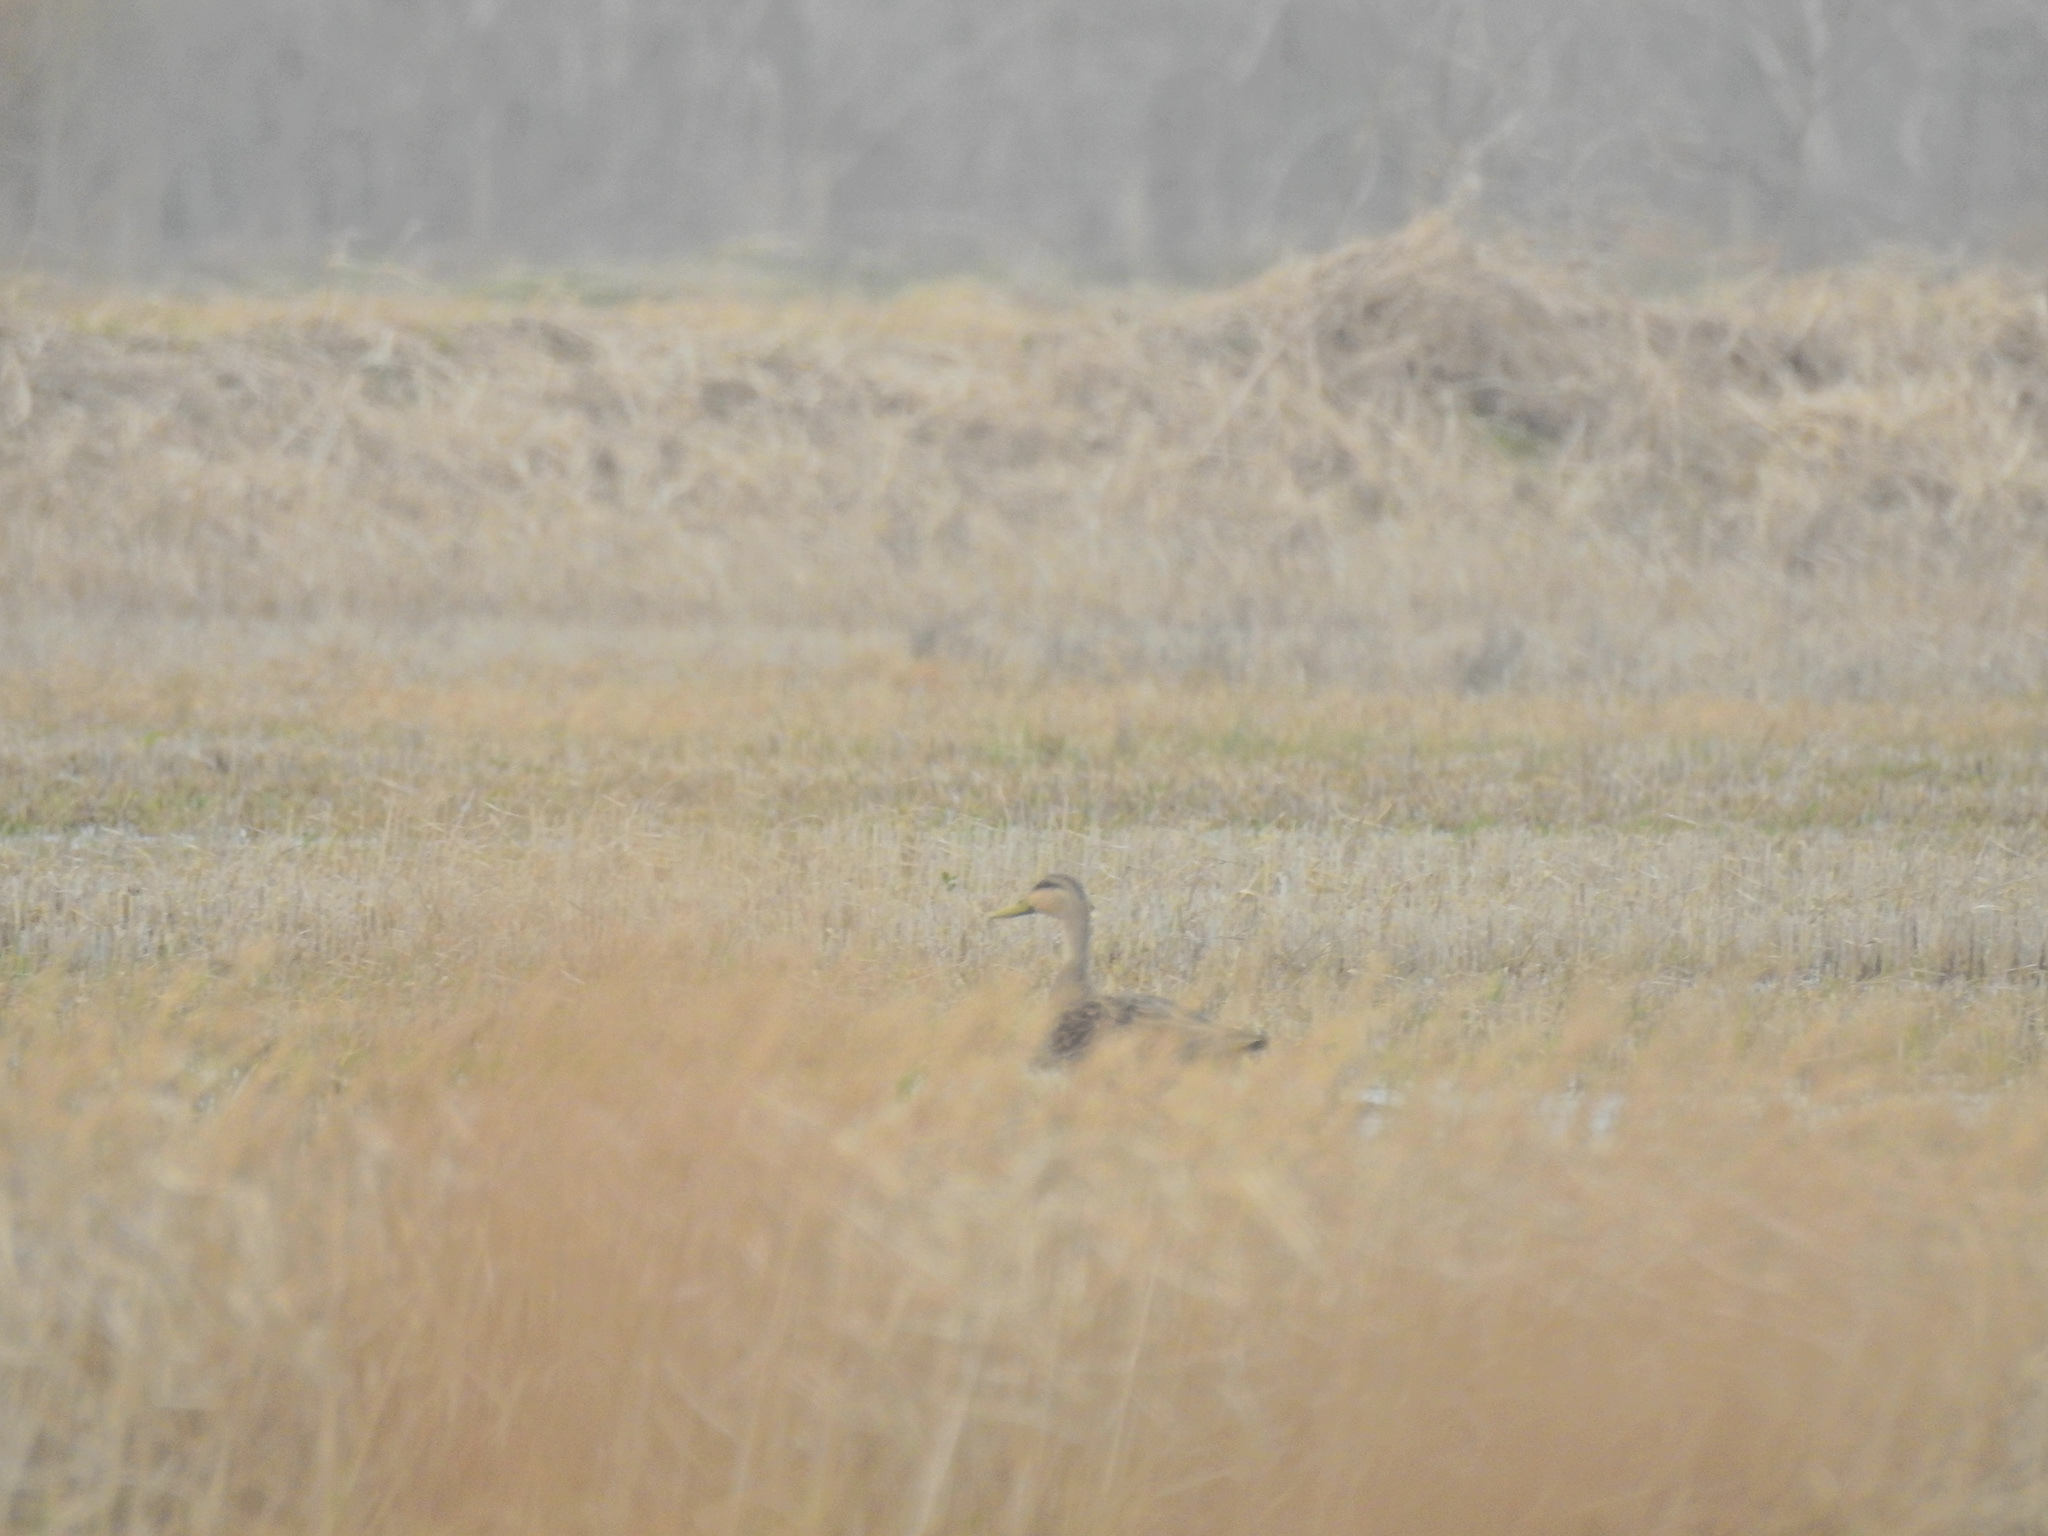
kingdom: Animalia
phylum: Chordata
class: Aves
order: Anseriformes
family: Anatidae
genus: Anas
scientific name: Anas fulvigula
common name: Mottled duck
